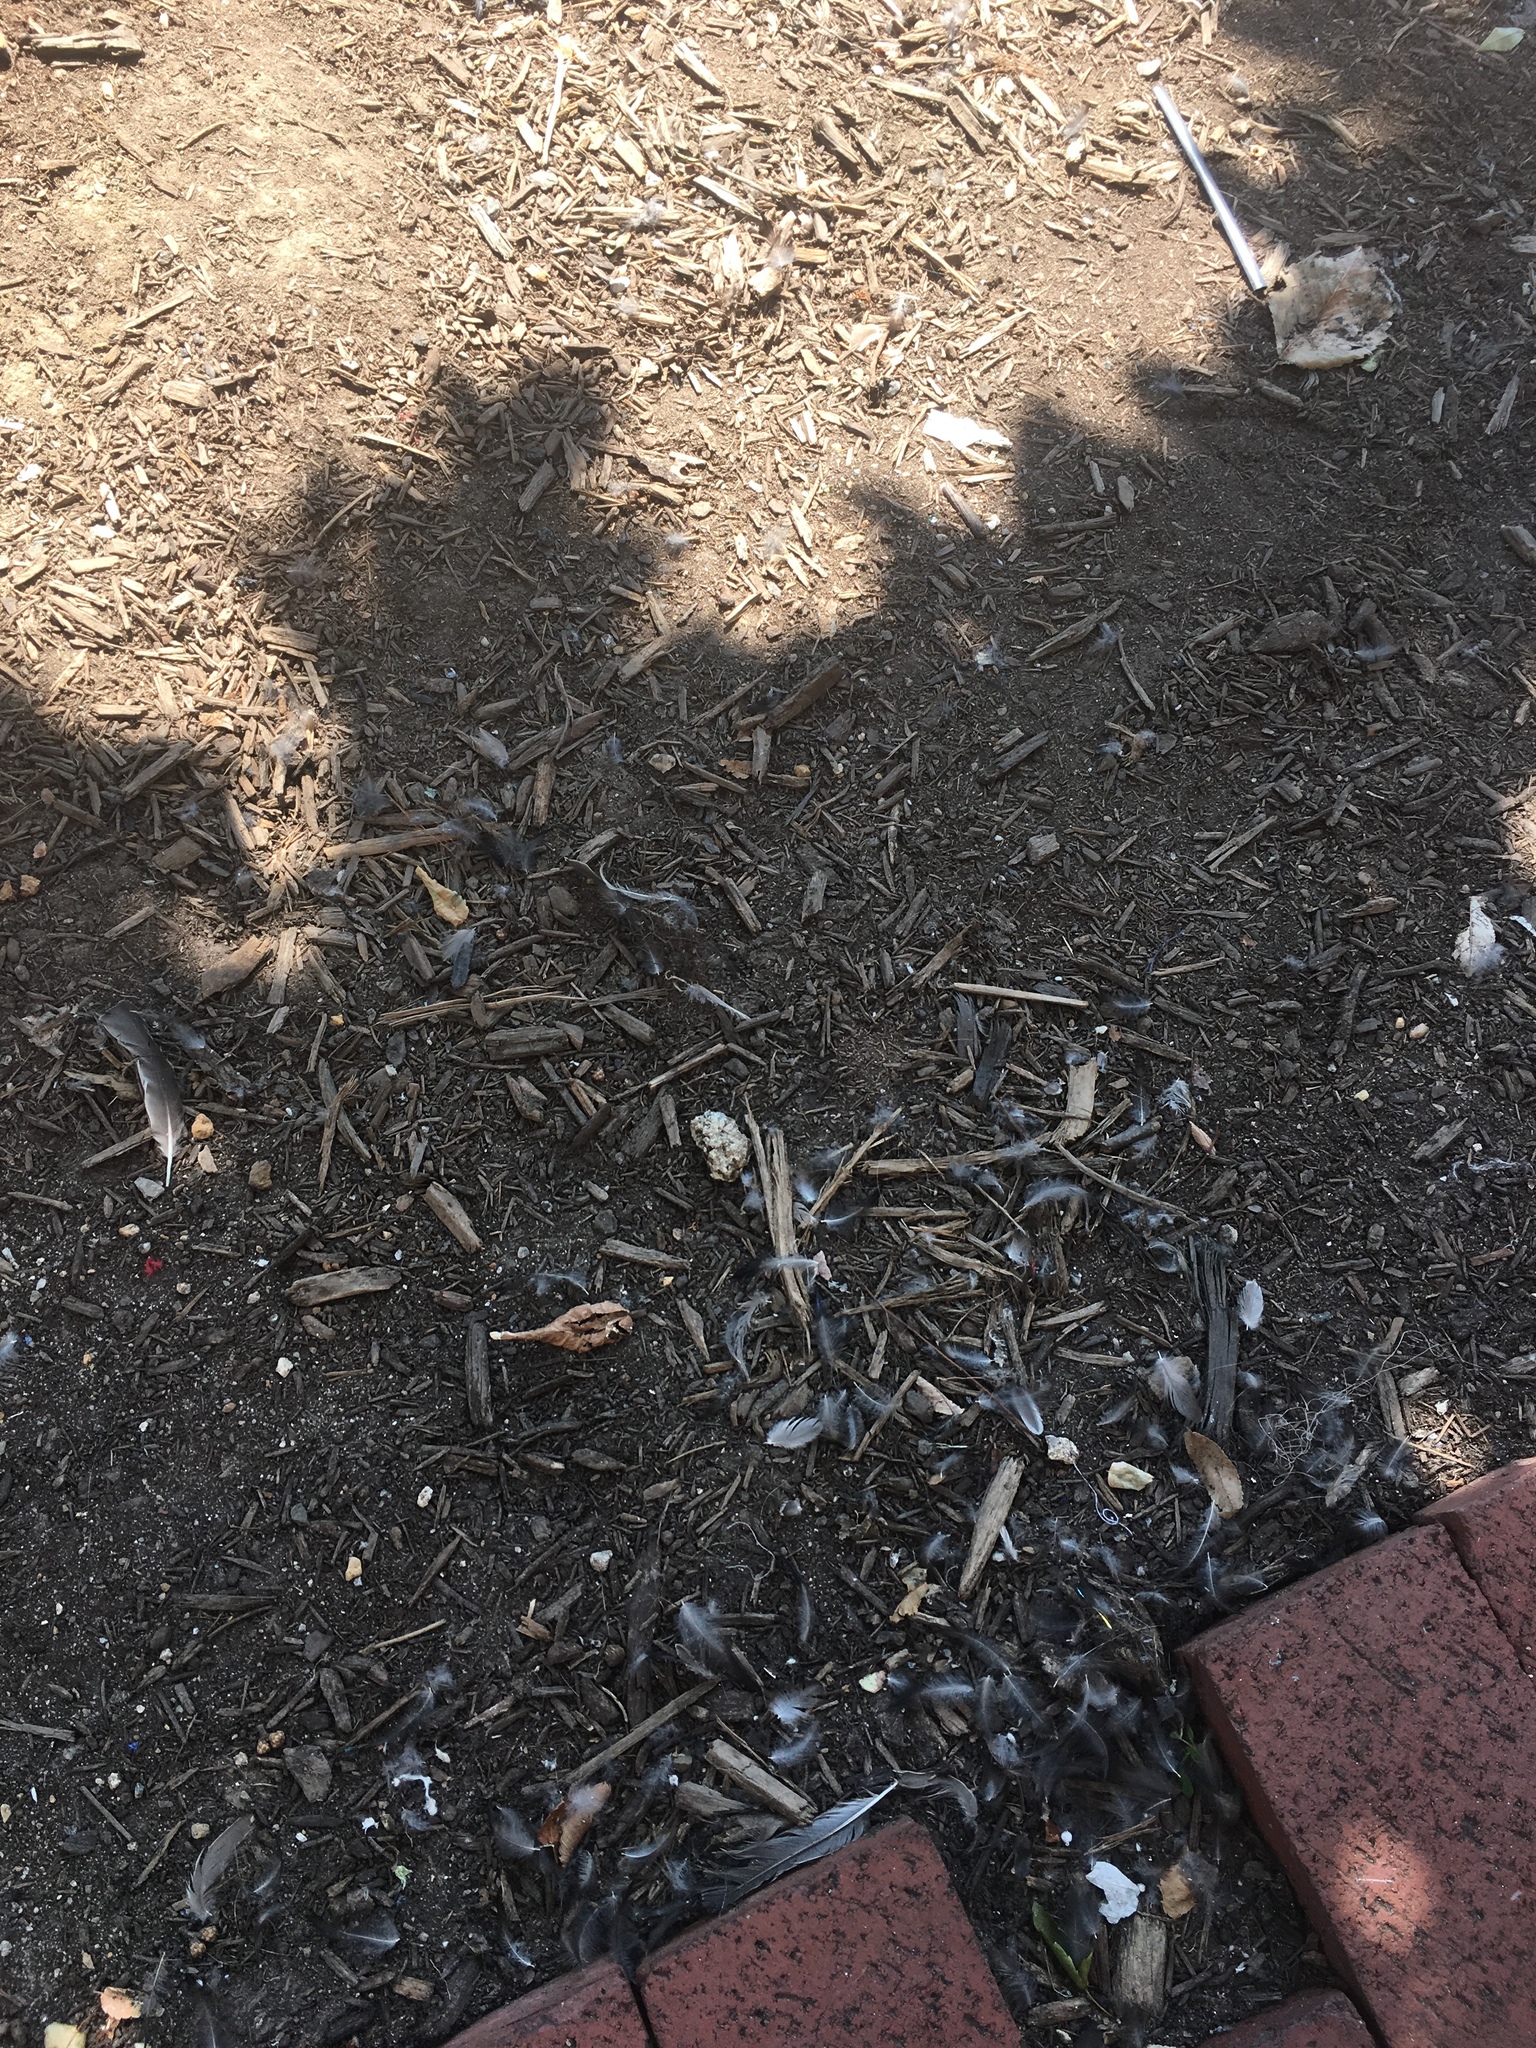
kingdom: Animalia
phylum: Chordata
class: Aves
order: Passeriformes
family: Sturnidae
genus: Sturnus
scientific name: Sturnus vulgaris
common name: Common starling
